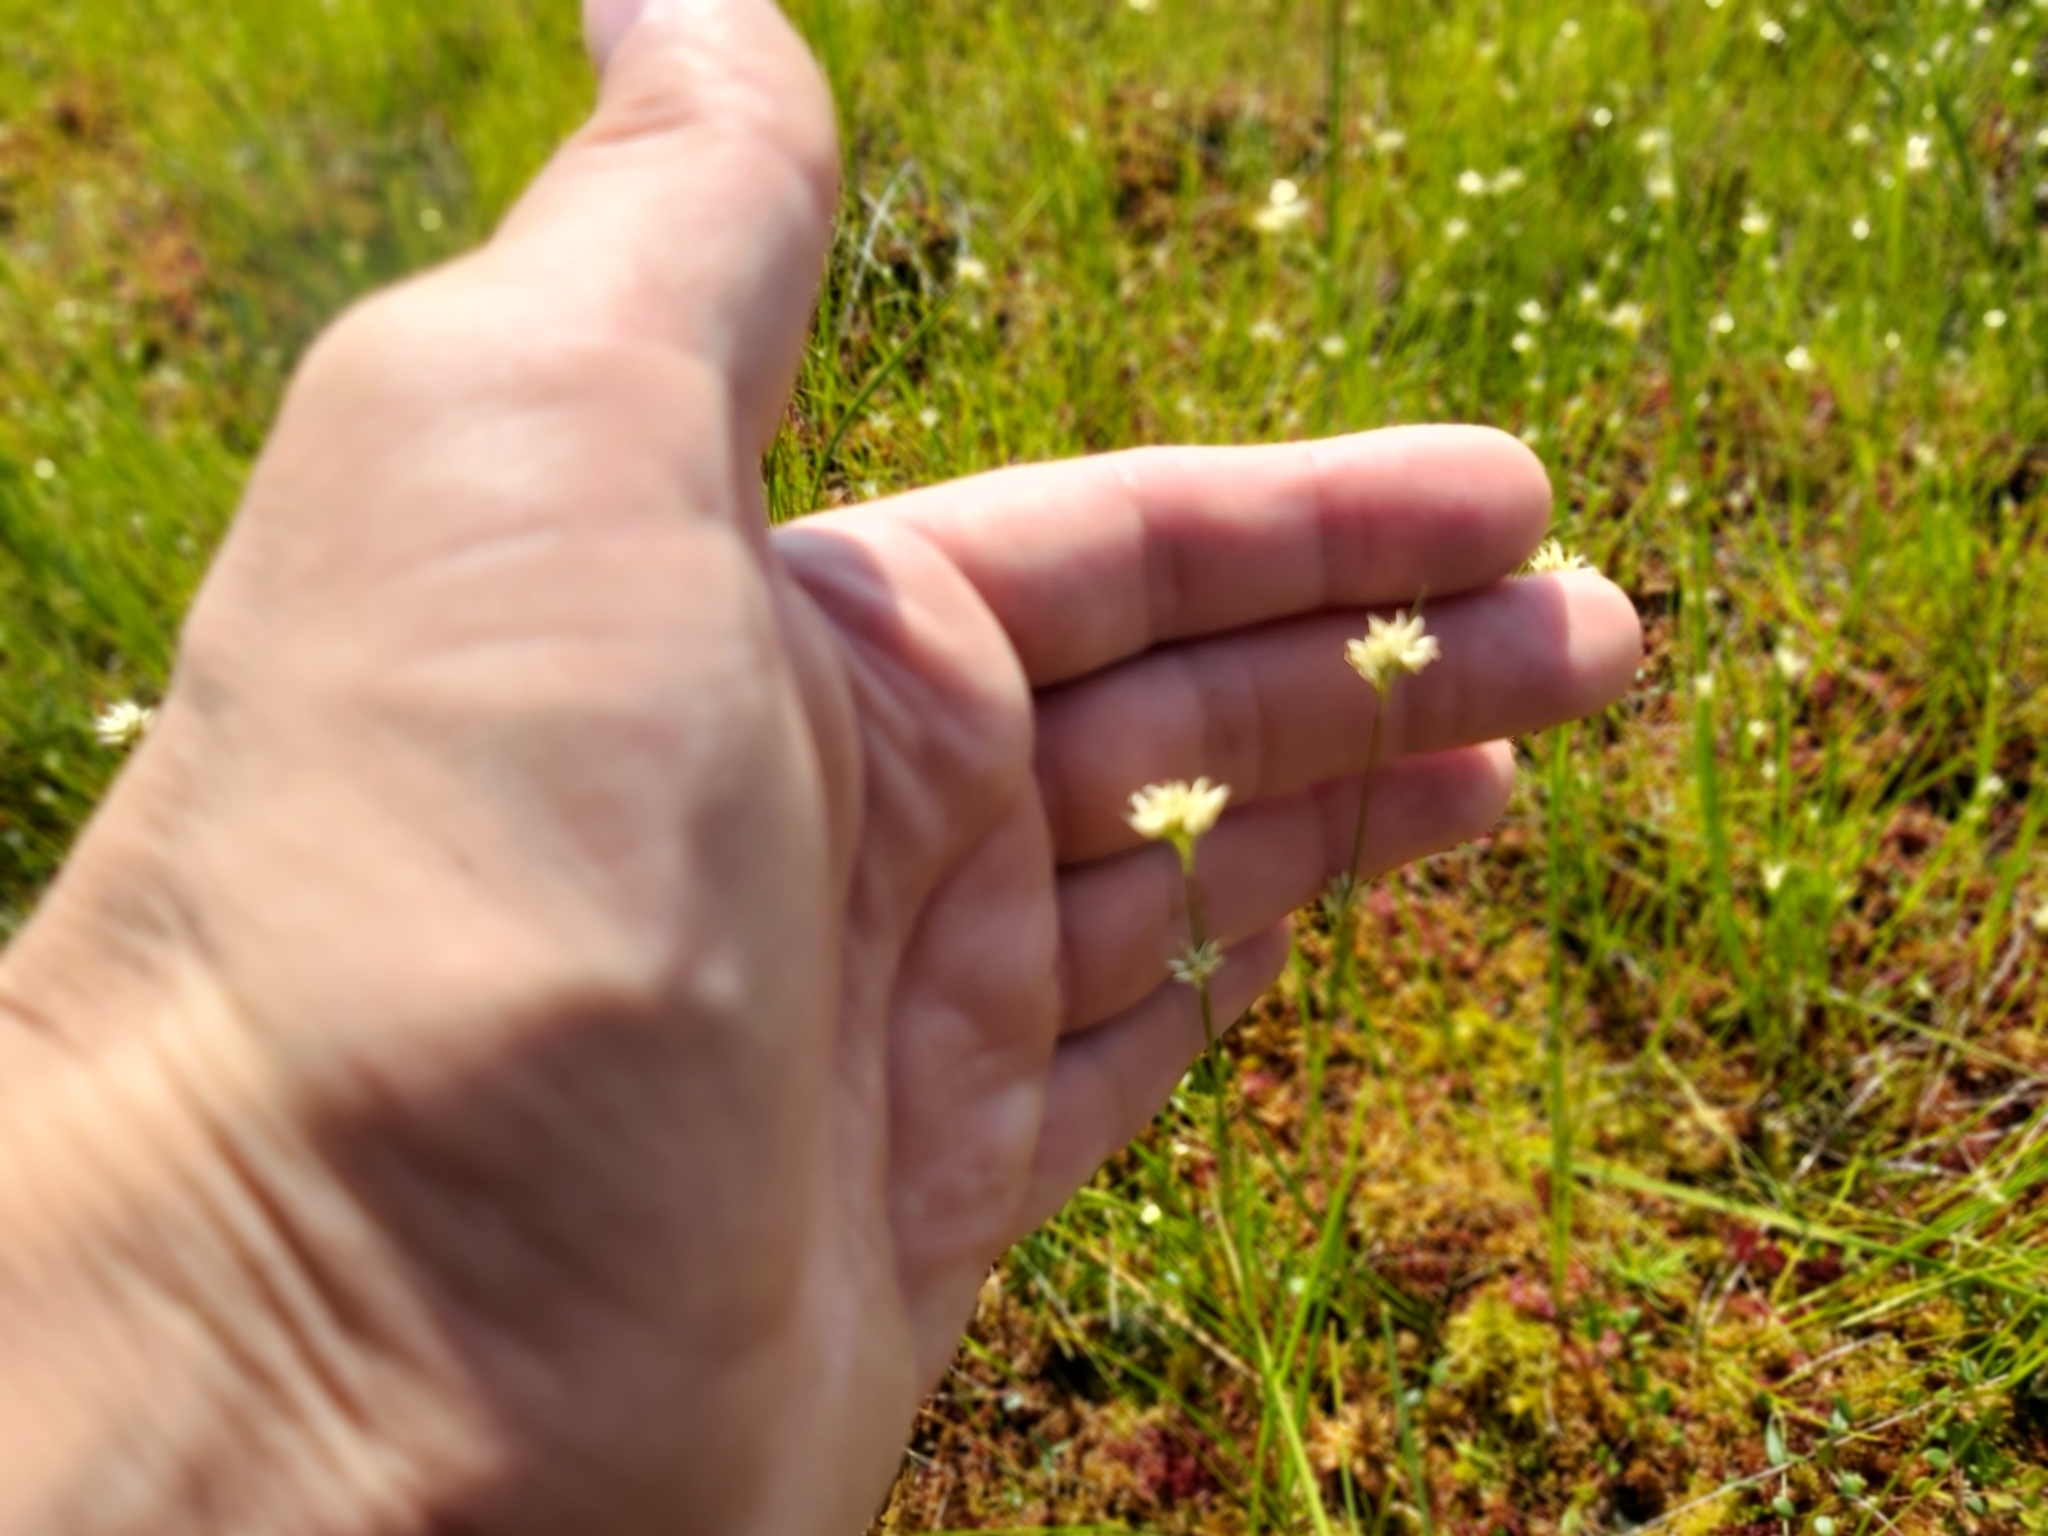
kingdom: Plantae
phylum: Tracheophyta
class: Liliopsida
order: Poales
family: Cyperaceae
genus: Rhynchospora
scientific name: Rhynchospora alba
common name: White beak-sedge
